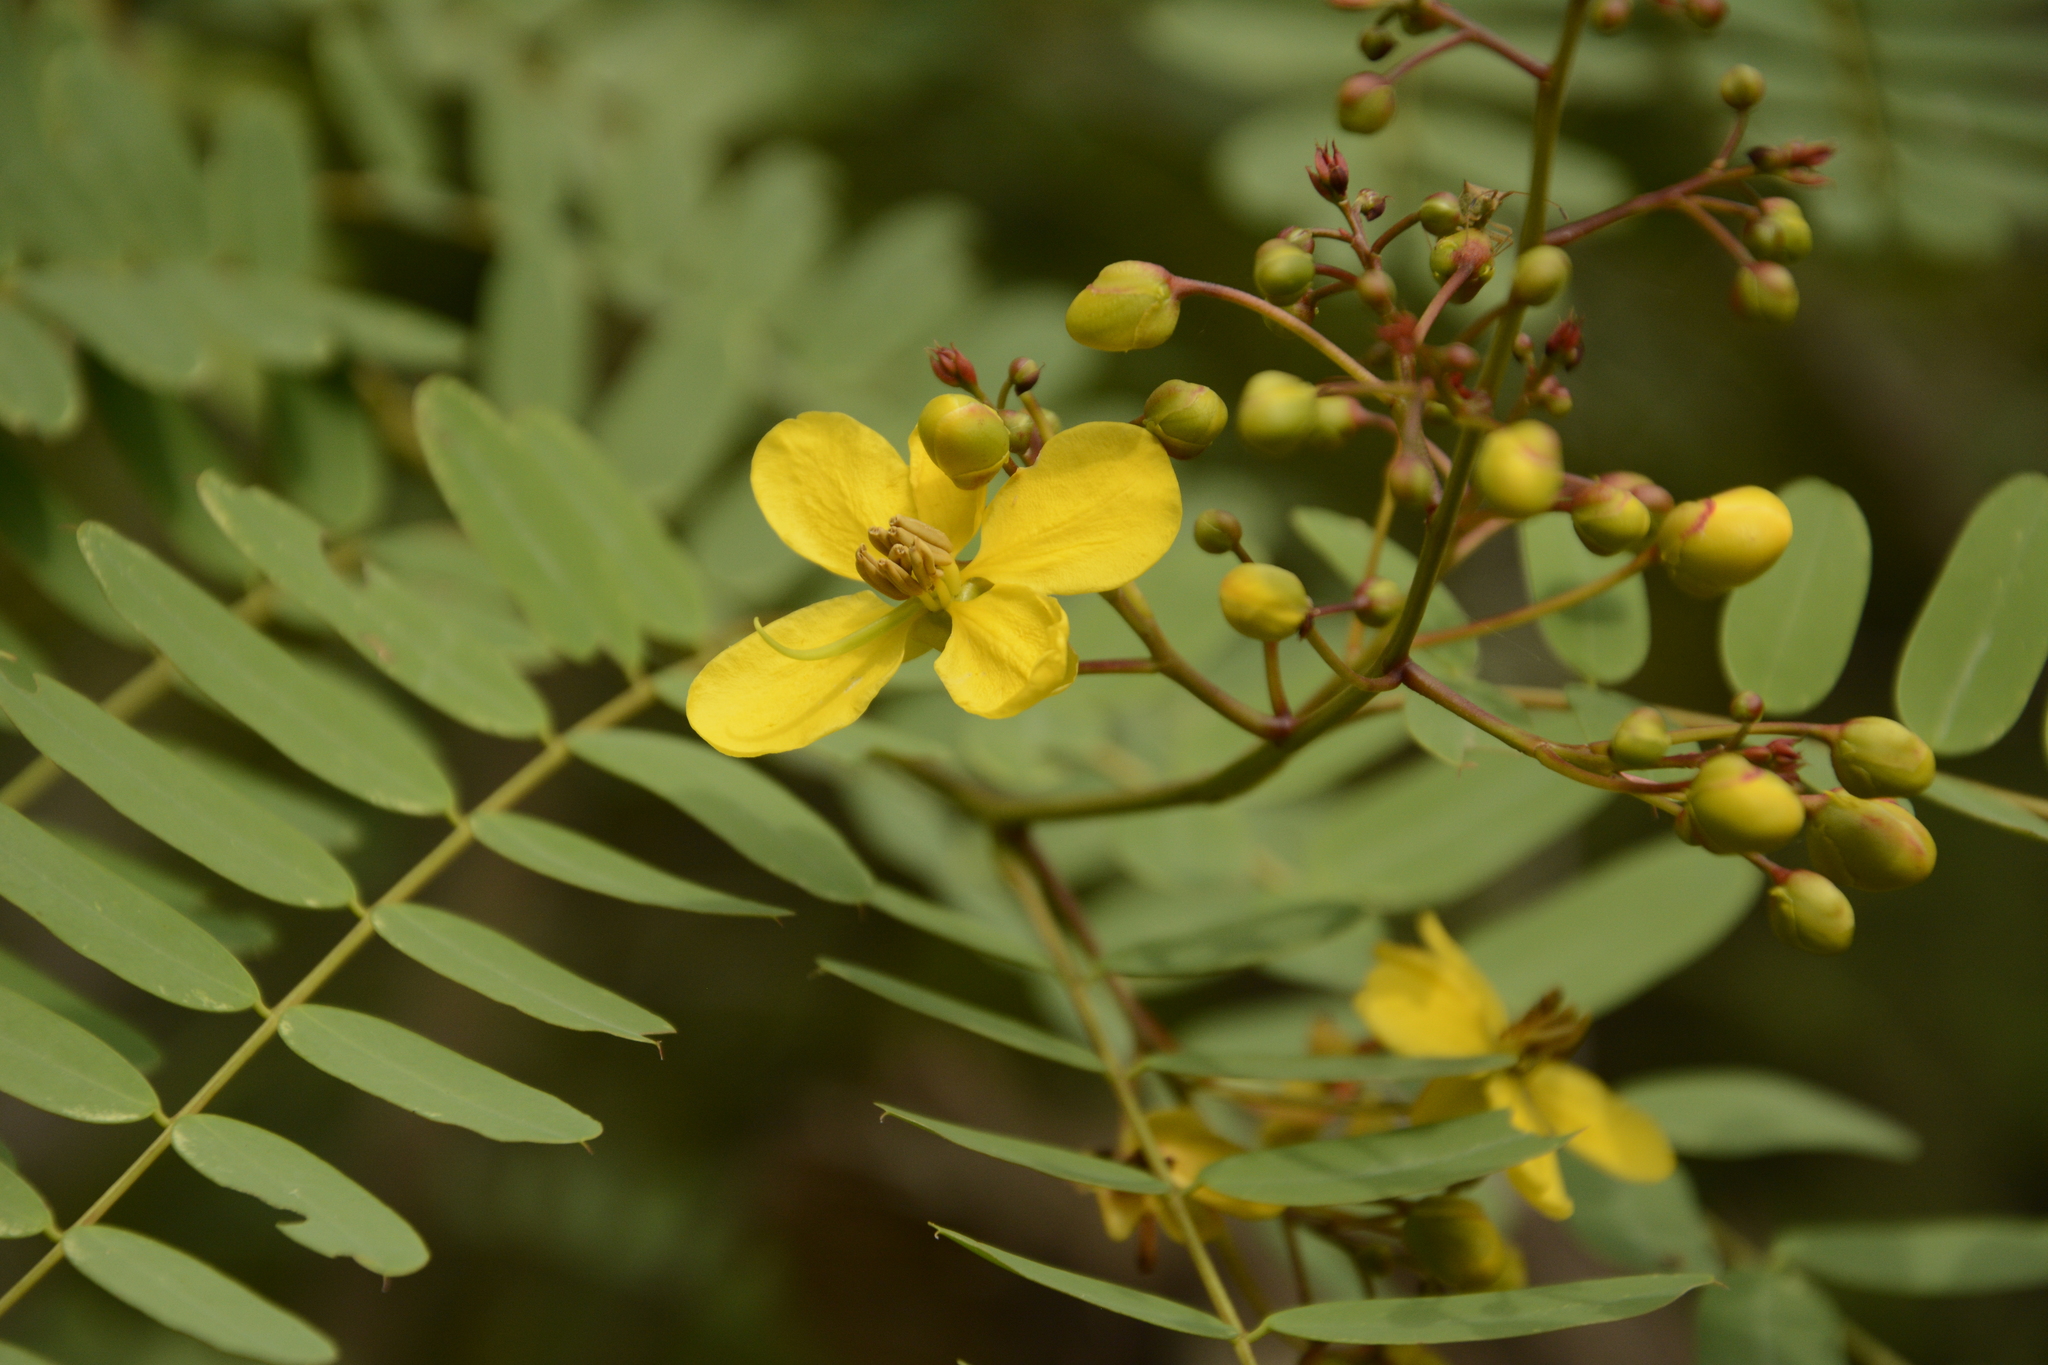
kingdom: Plantae
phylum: Tracheophyta
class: Magnoliopsida
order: Fabales
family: Fabaceae
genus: Senna
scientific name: Senna montana
